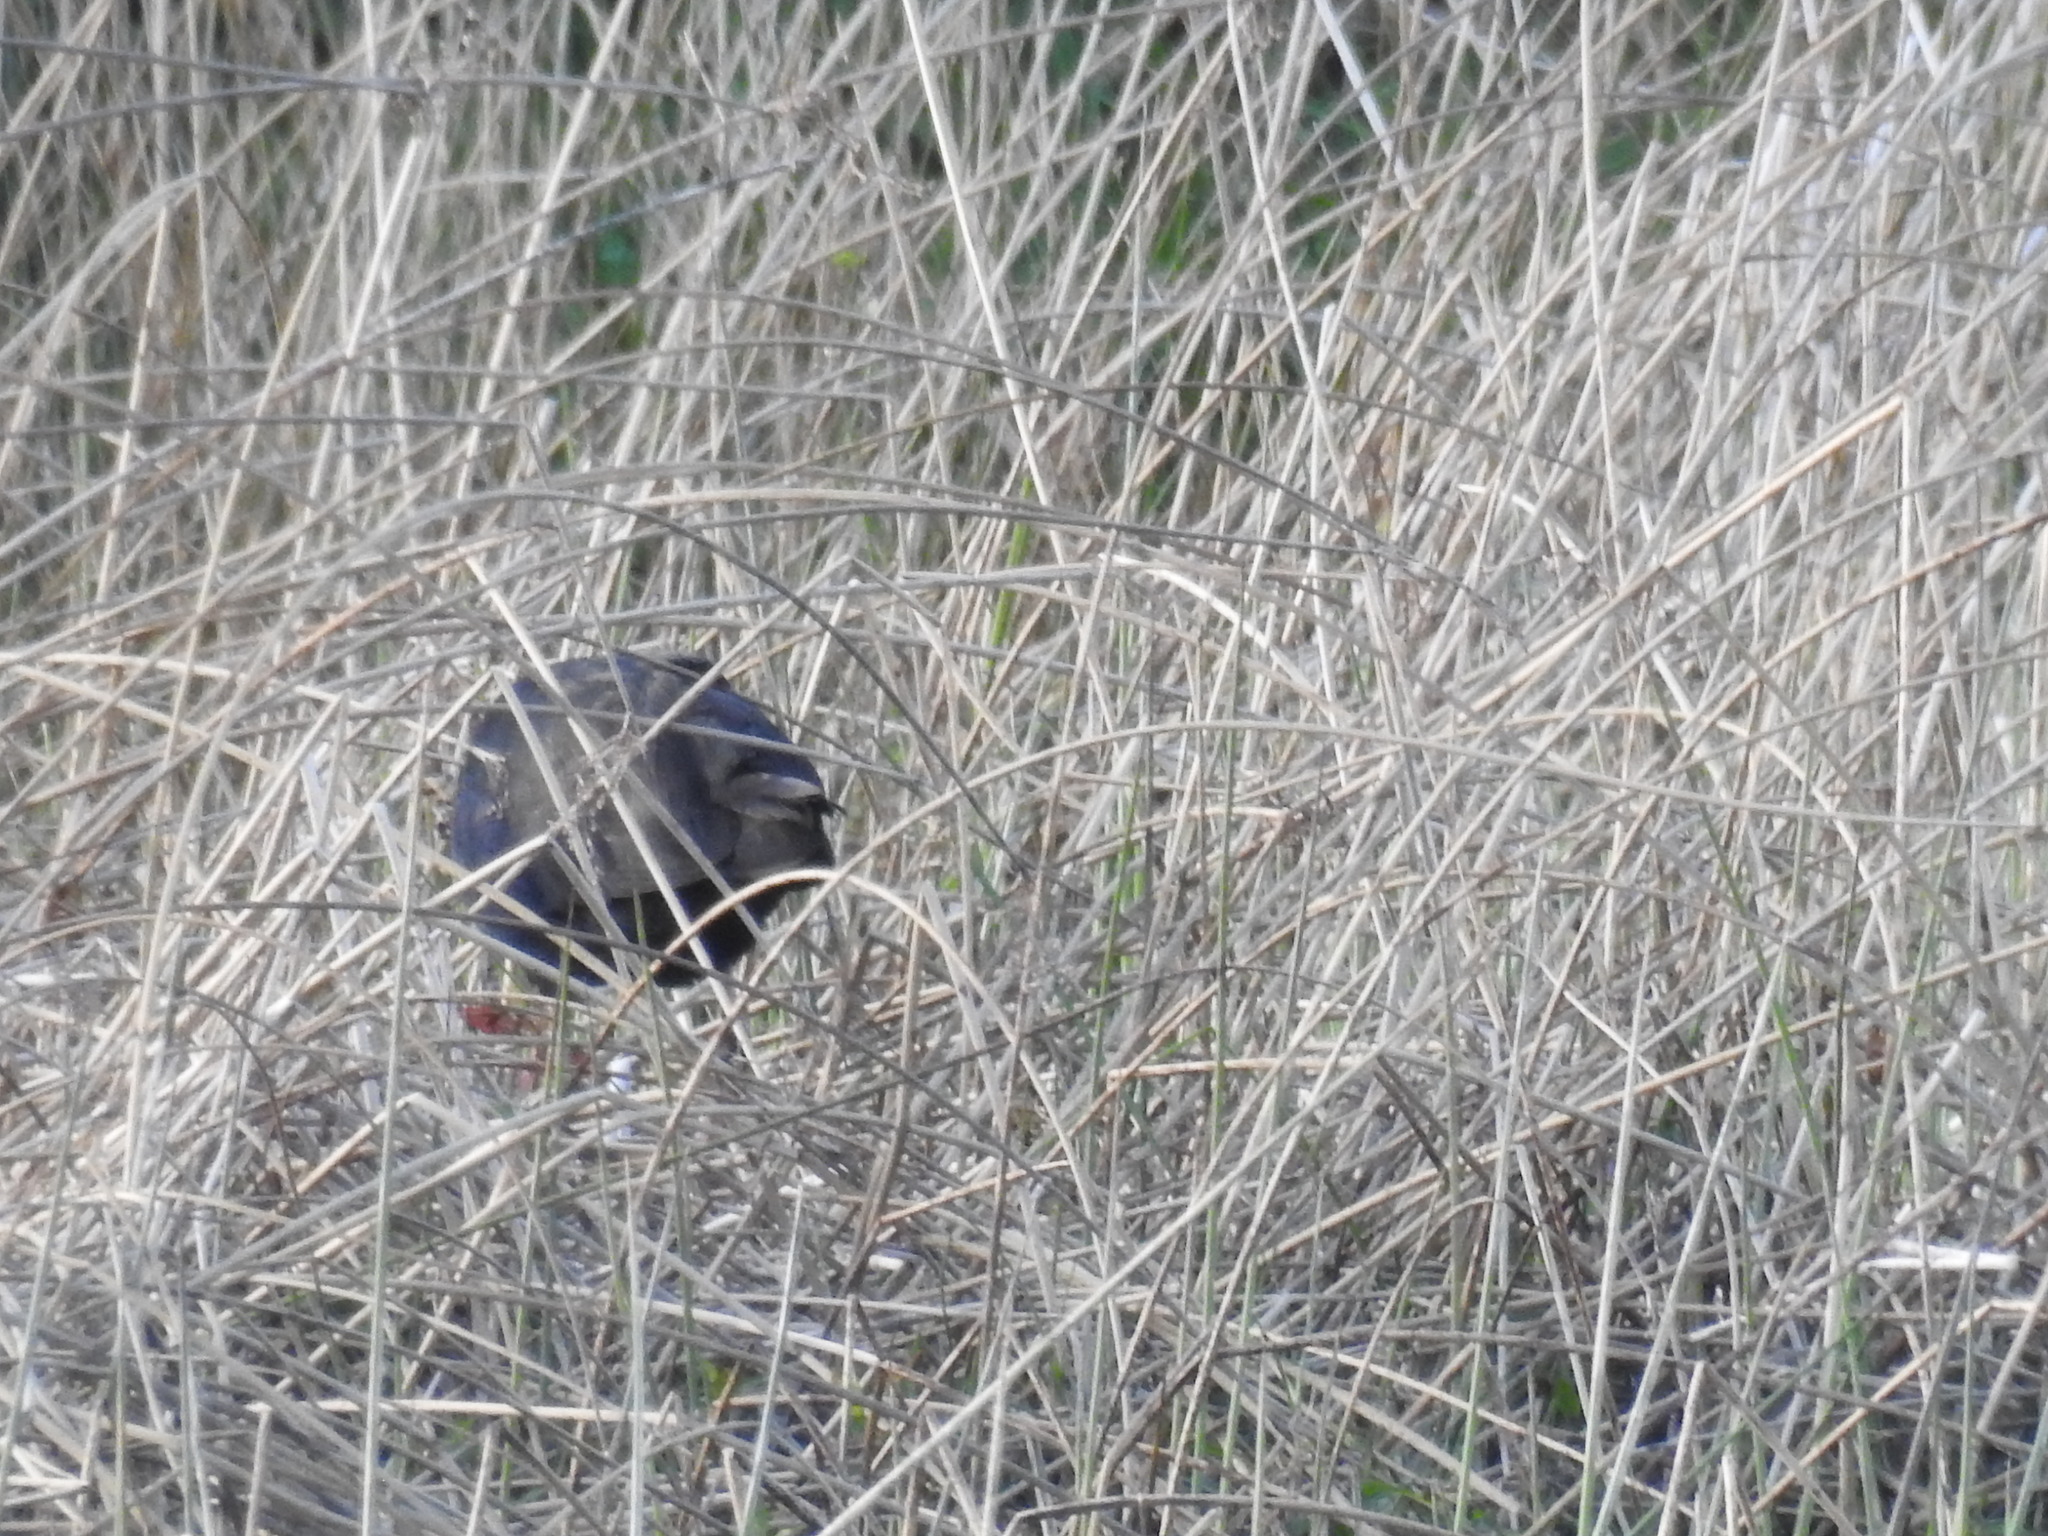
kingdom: Animalia
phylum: Chordata
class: Aves
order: Gruiformes
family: Rallidae
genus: Porphyrio
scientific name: Porphyrio melanotus
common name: Australasian swamphen
